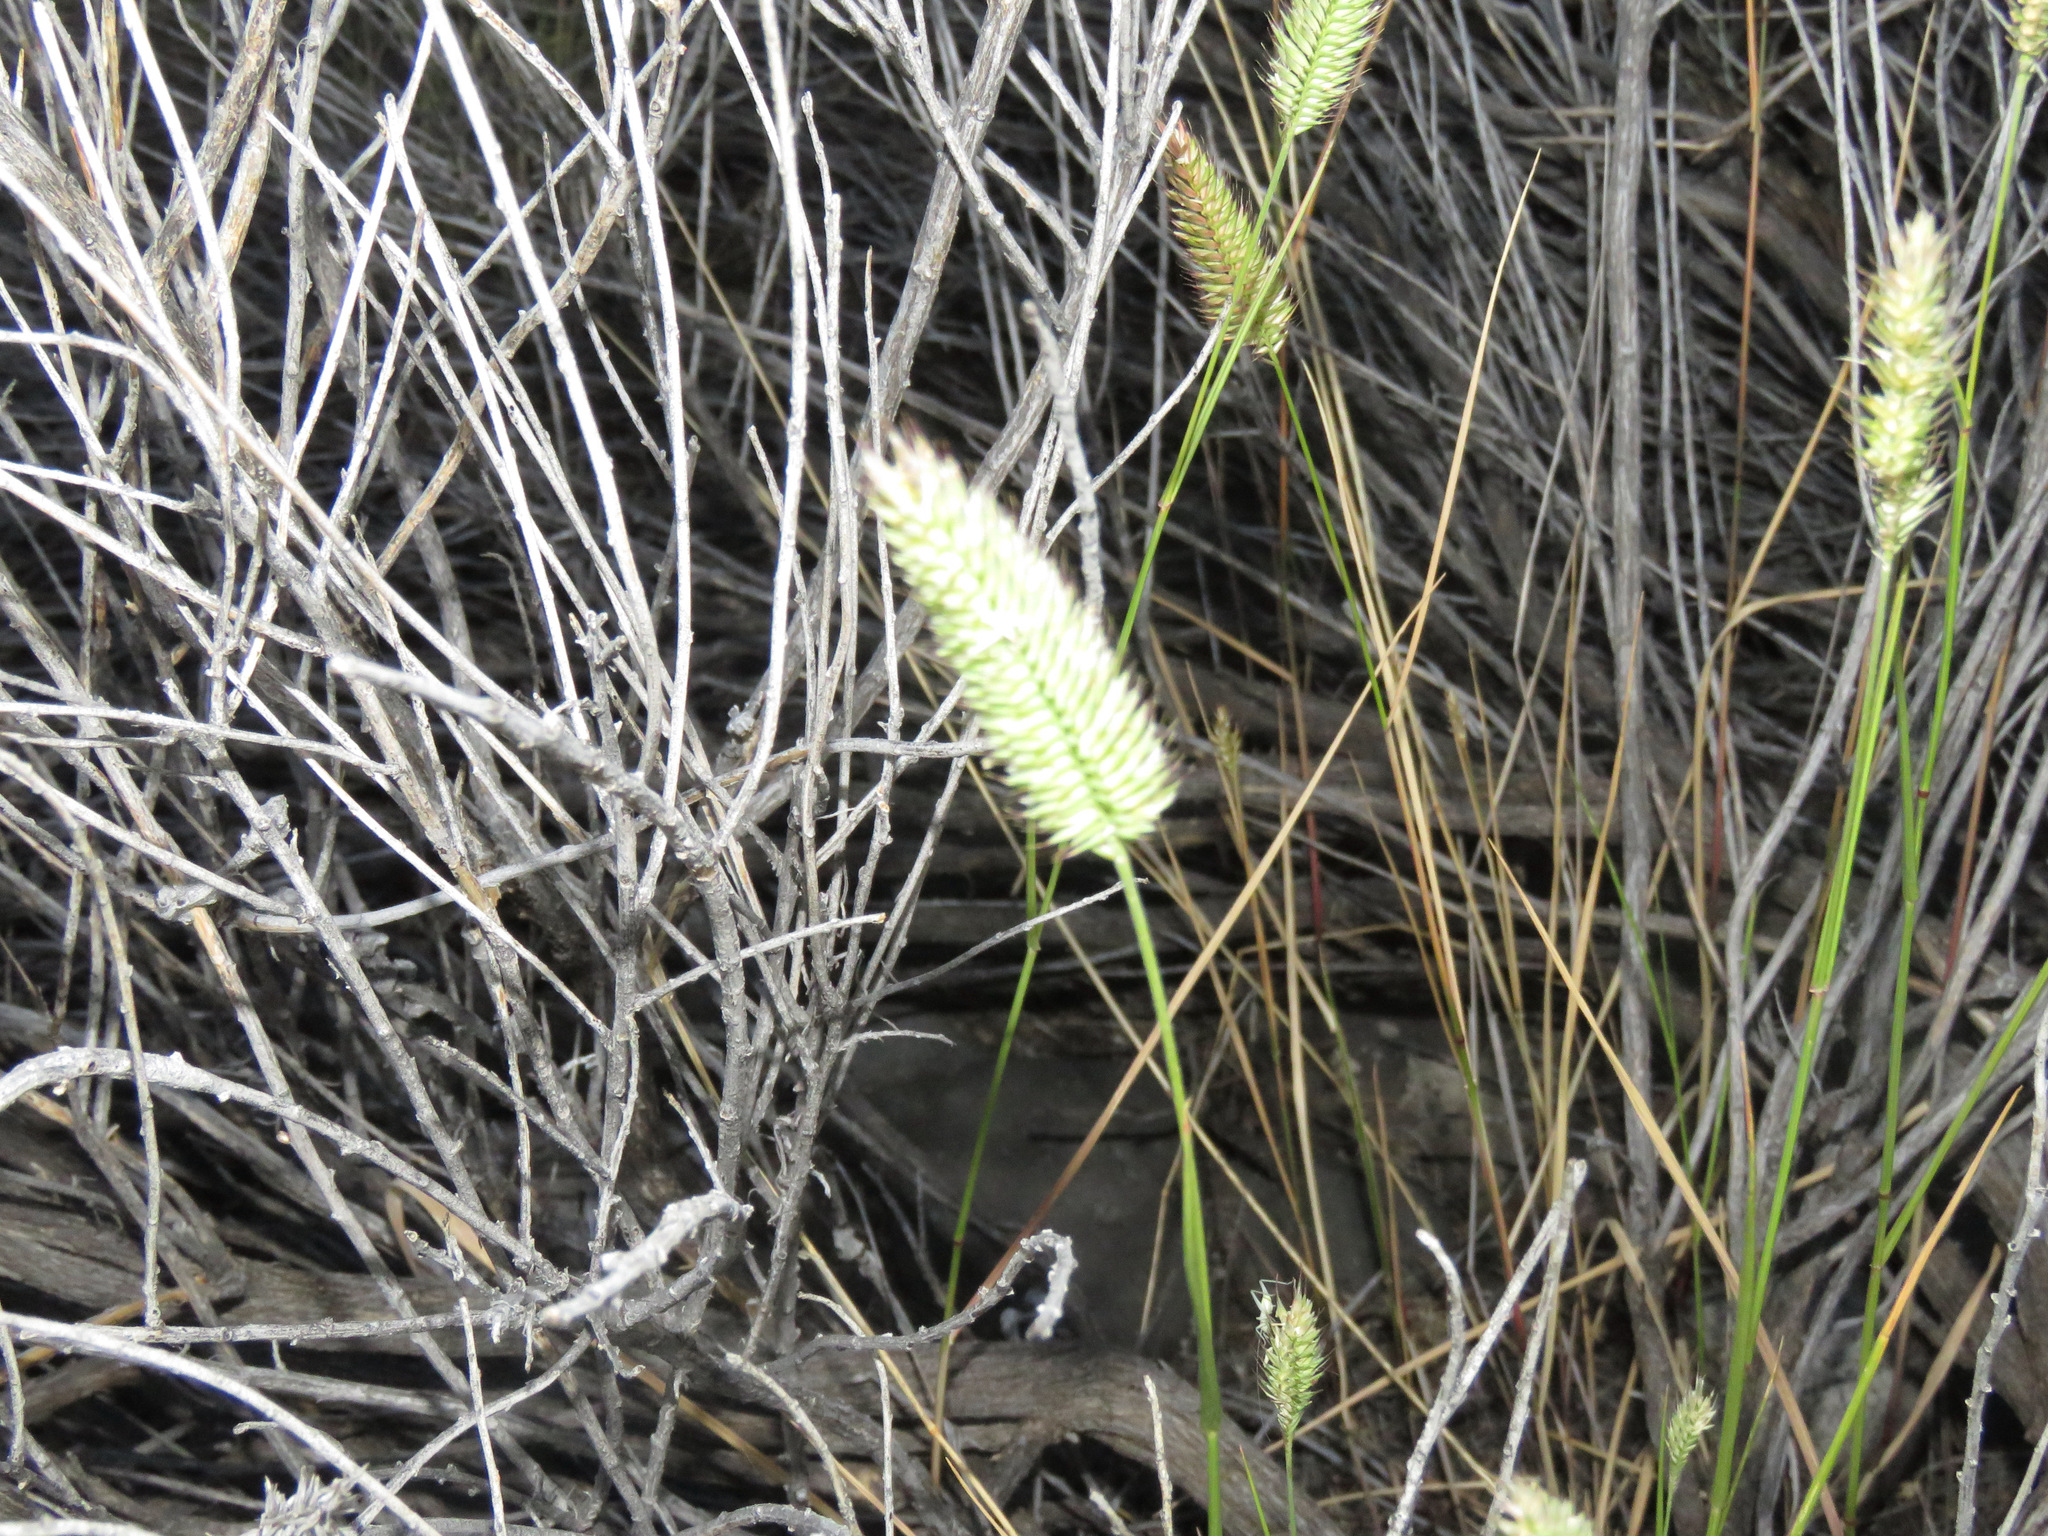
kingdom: Plantae
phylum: Tracheophyta
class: Liliopsida
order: Poales
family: Poaceae
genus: Agropyron
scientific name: Agropyron cristatum
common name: Crested wheatgrass
